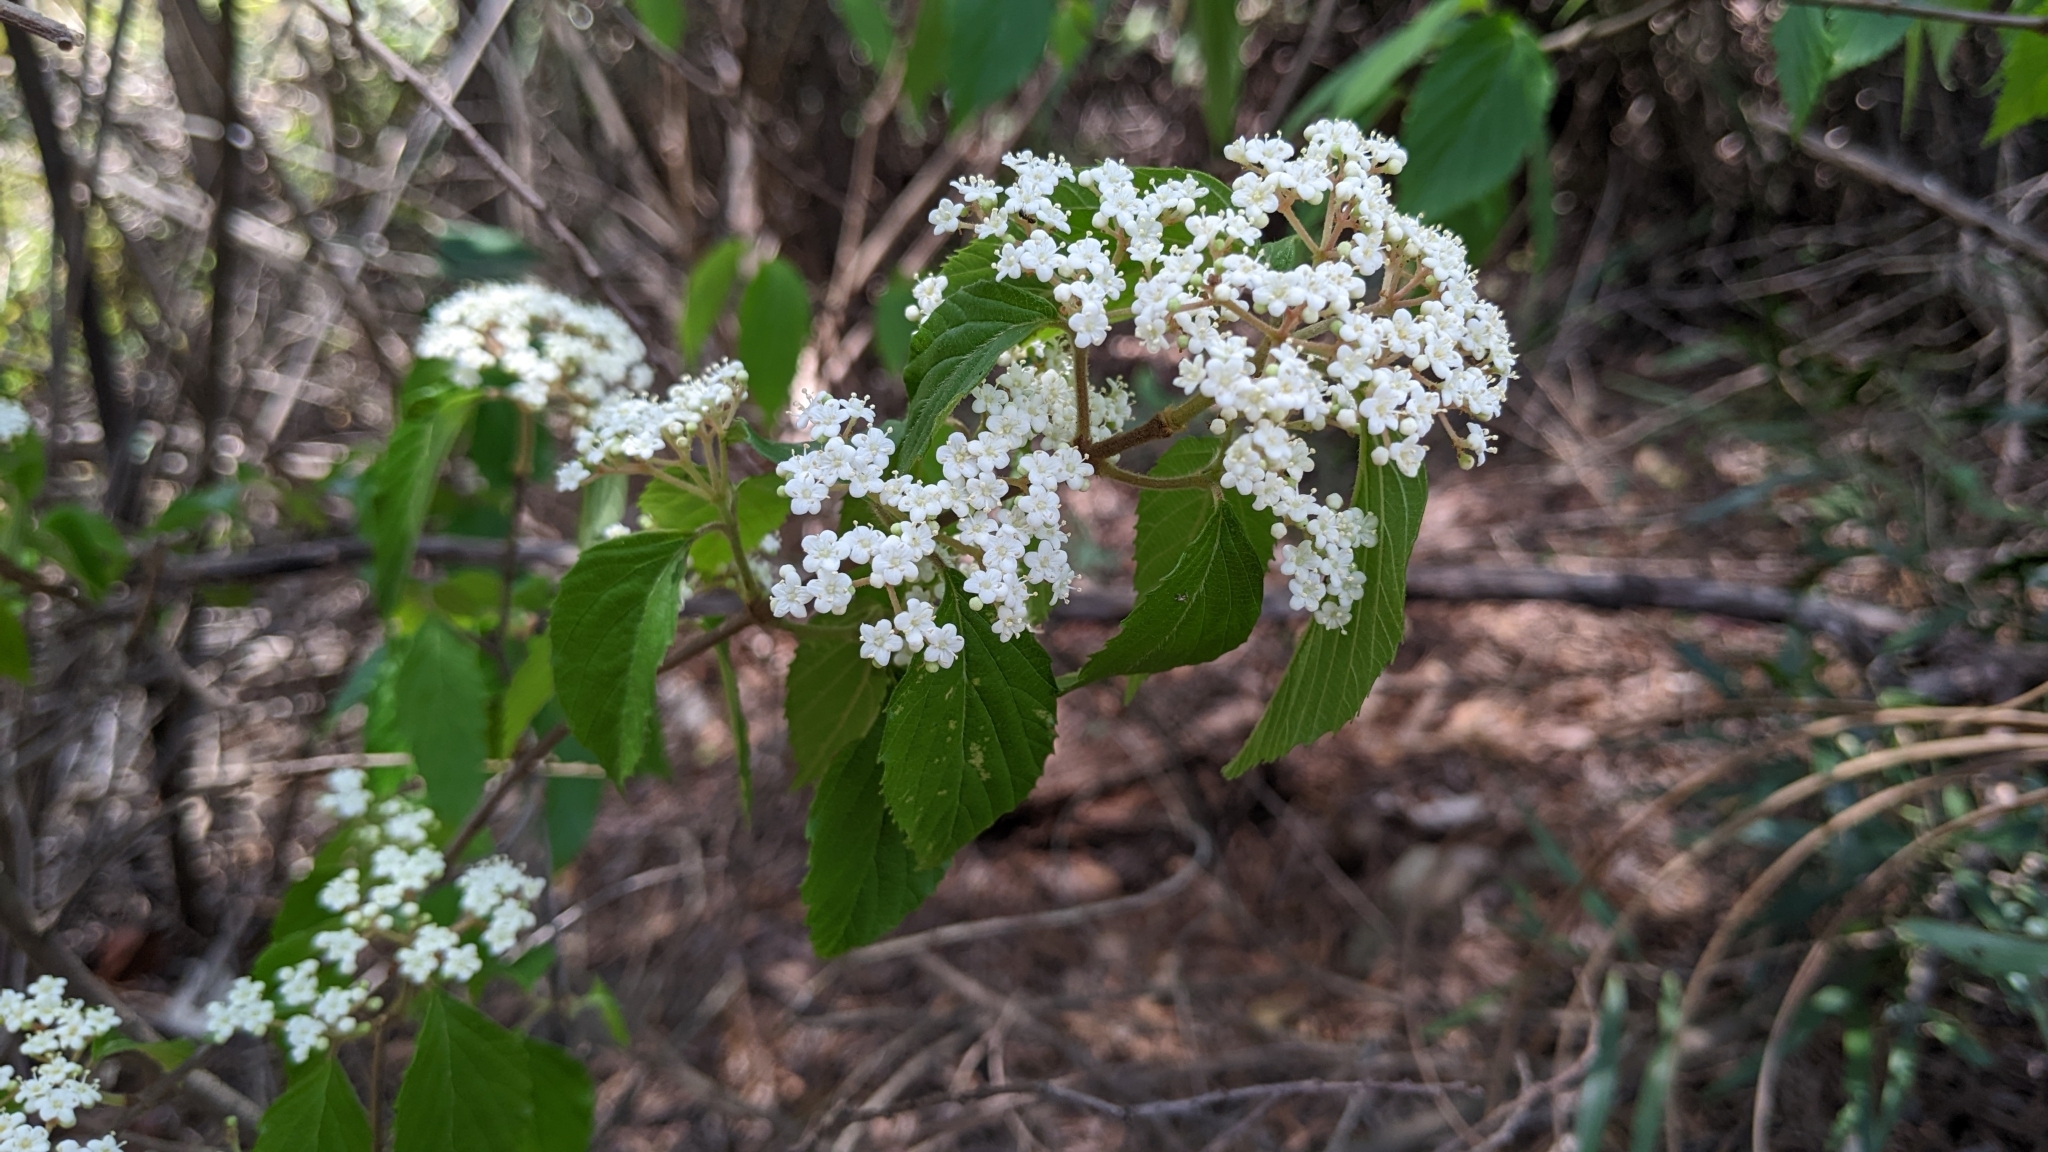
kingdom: Plantae
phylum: Tracheophyta
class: Magnoliopsida
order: Dipsacales
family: Viburnaceae
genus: Viburnum
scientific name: Viburnum luzonicum
